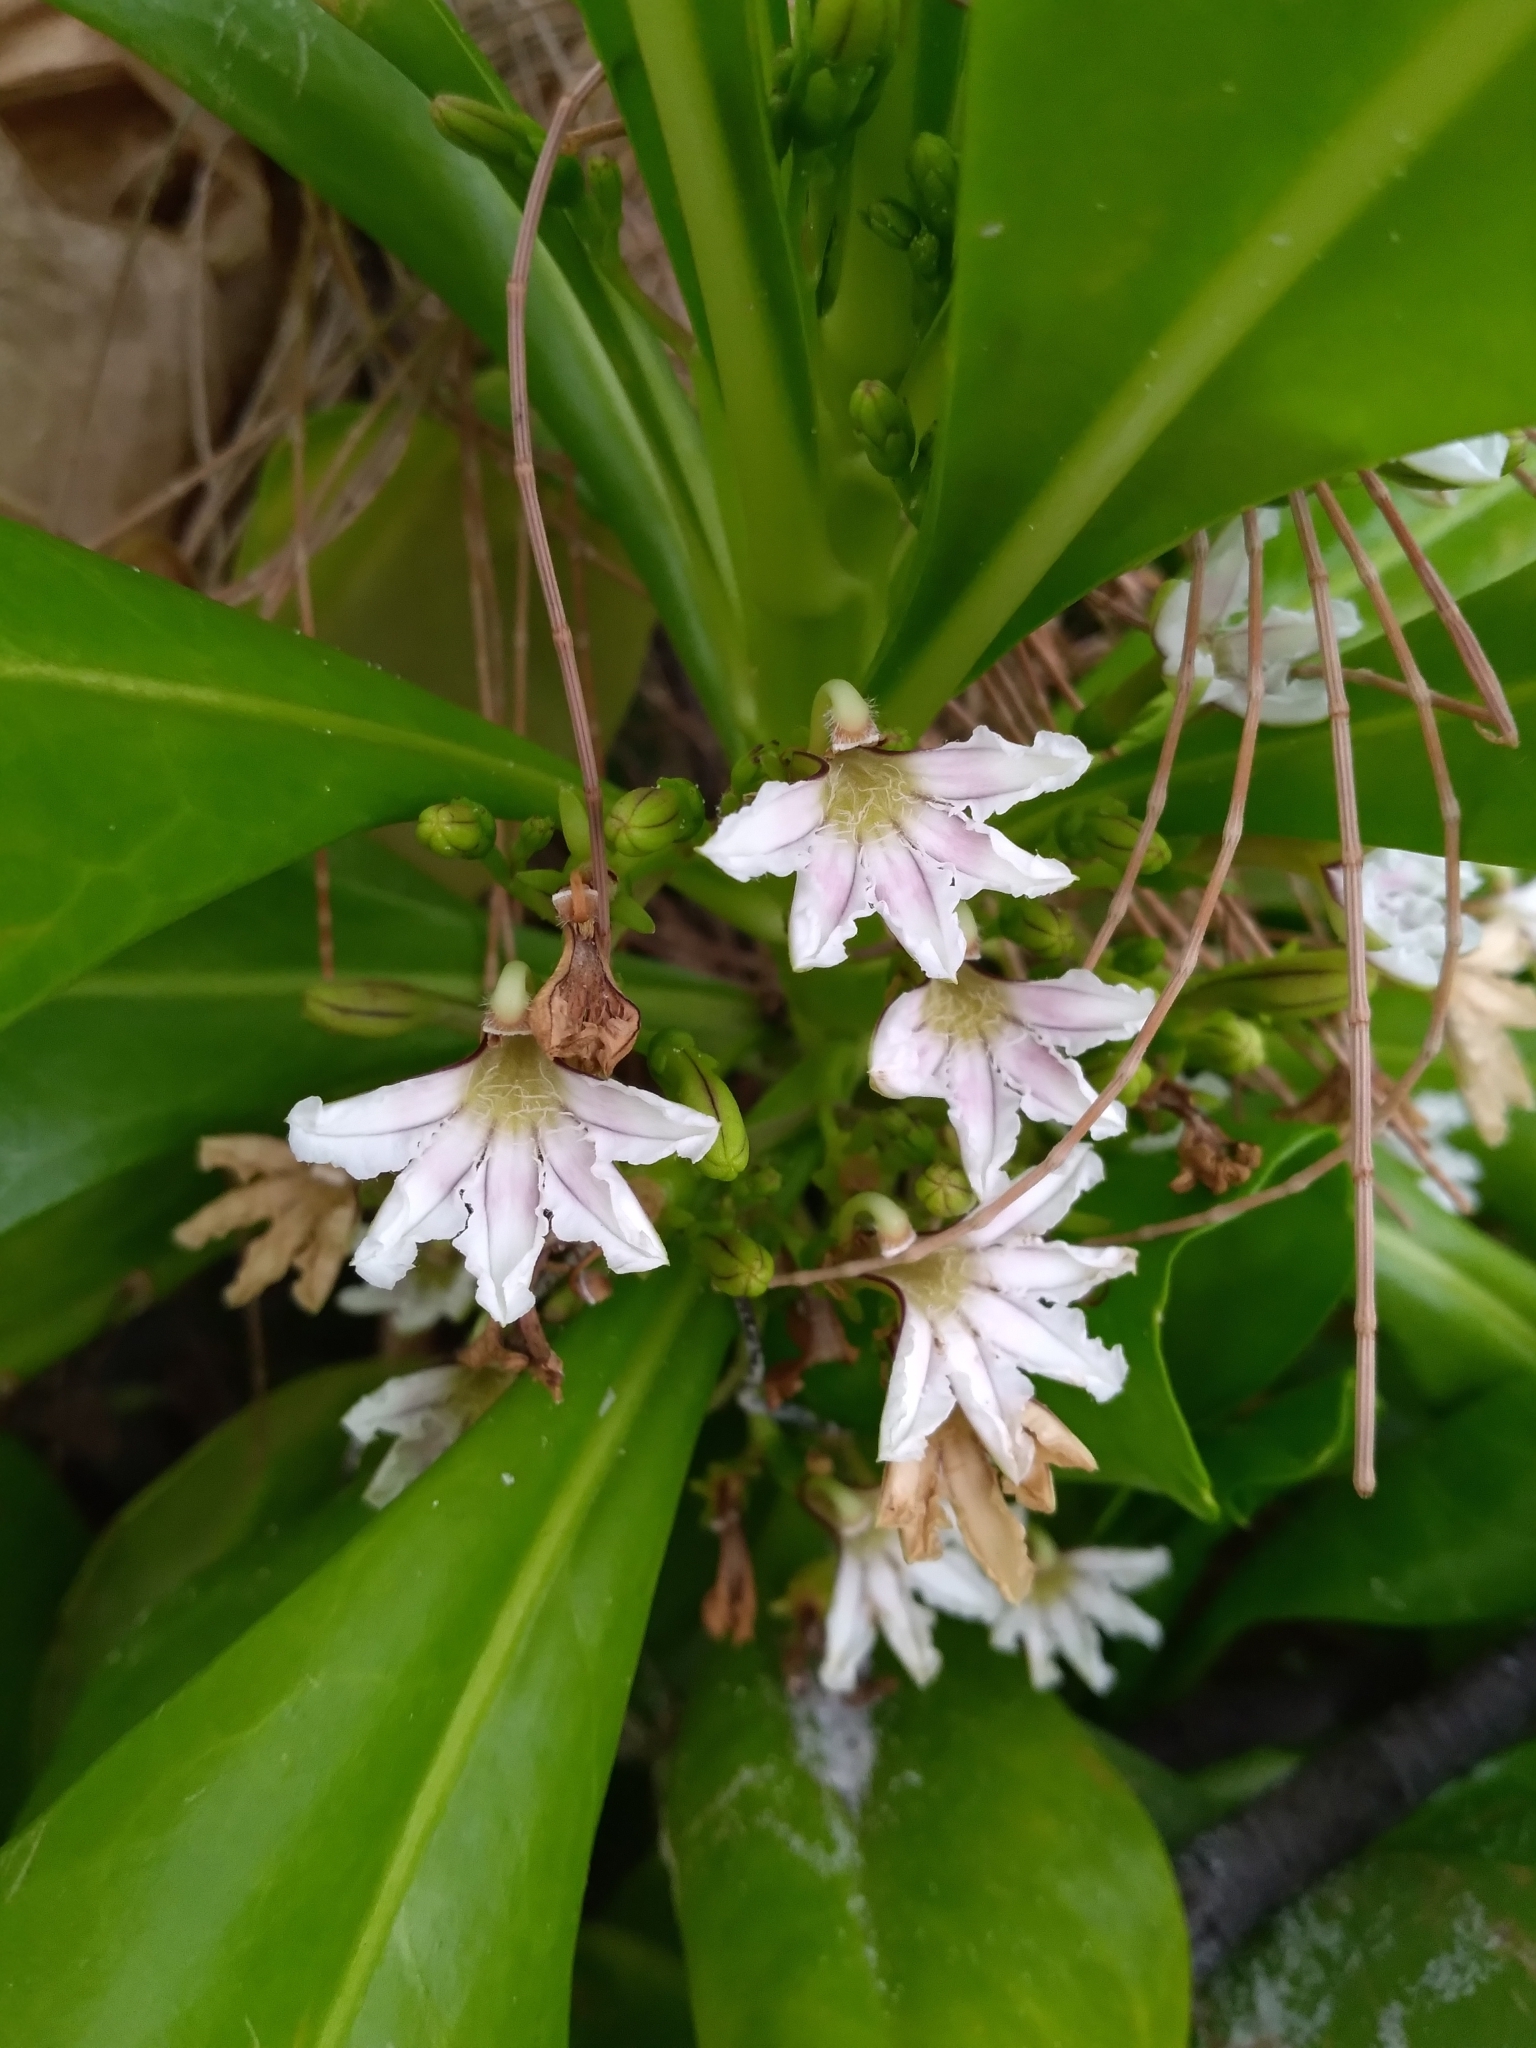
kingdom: Plantae
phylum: Tracheophyta
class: Magnoliopsida
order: Asterales
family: Goodeniaceae
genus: Scaevola
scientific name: Scaevola taccada
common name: Sea lettucetree
